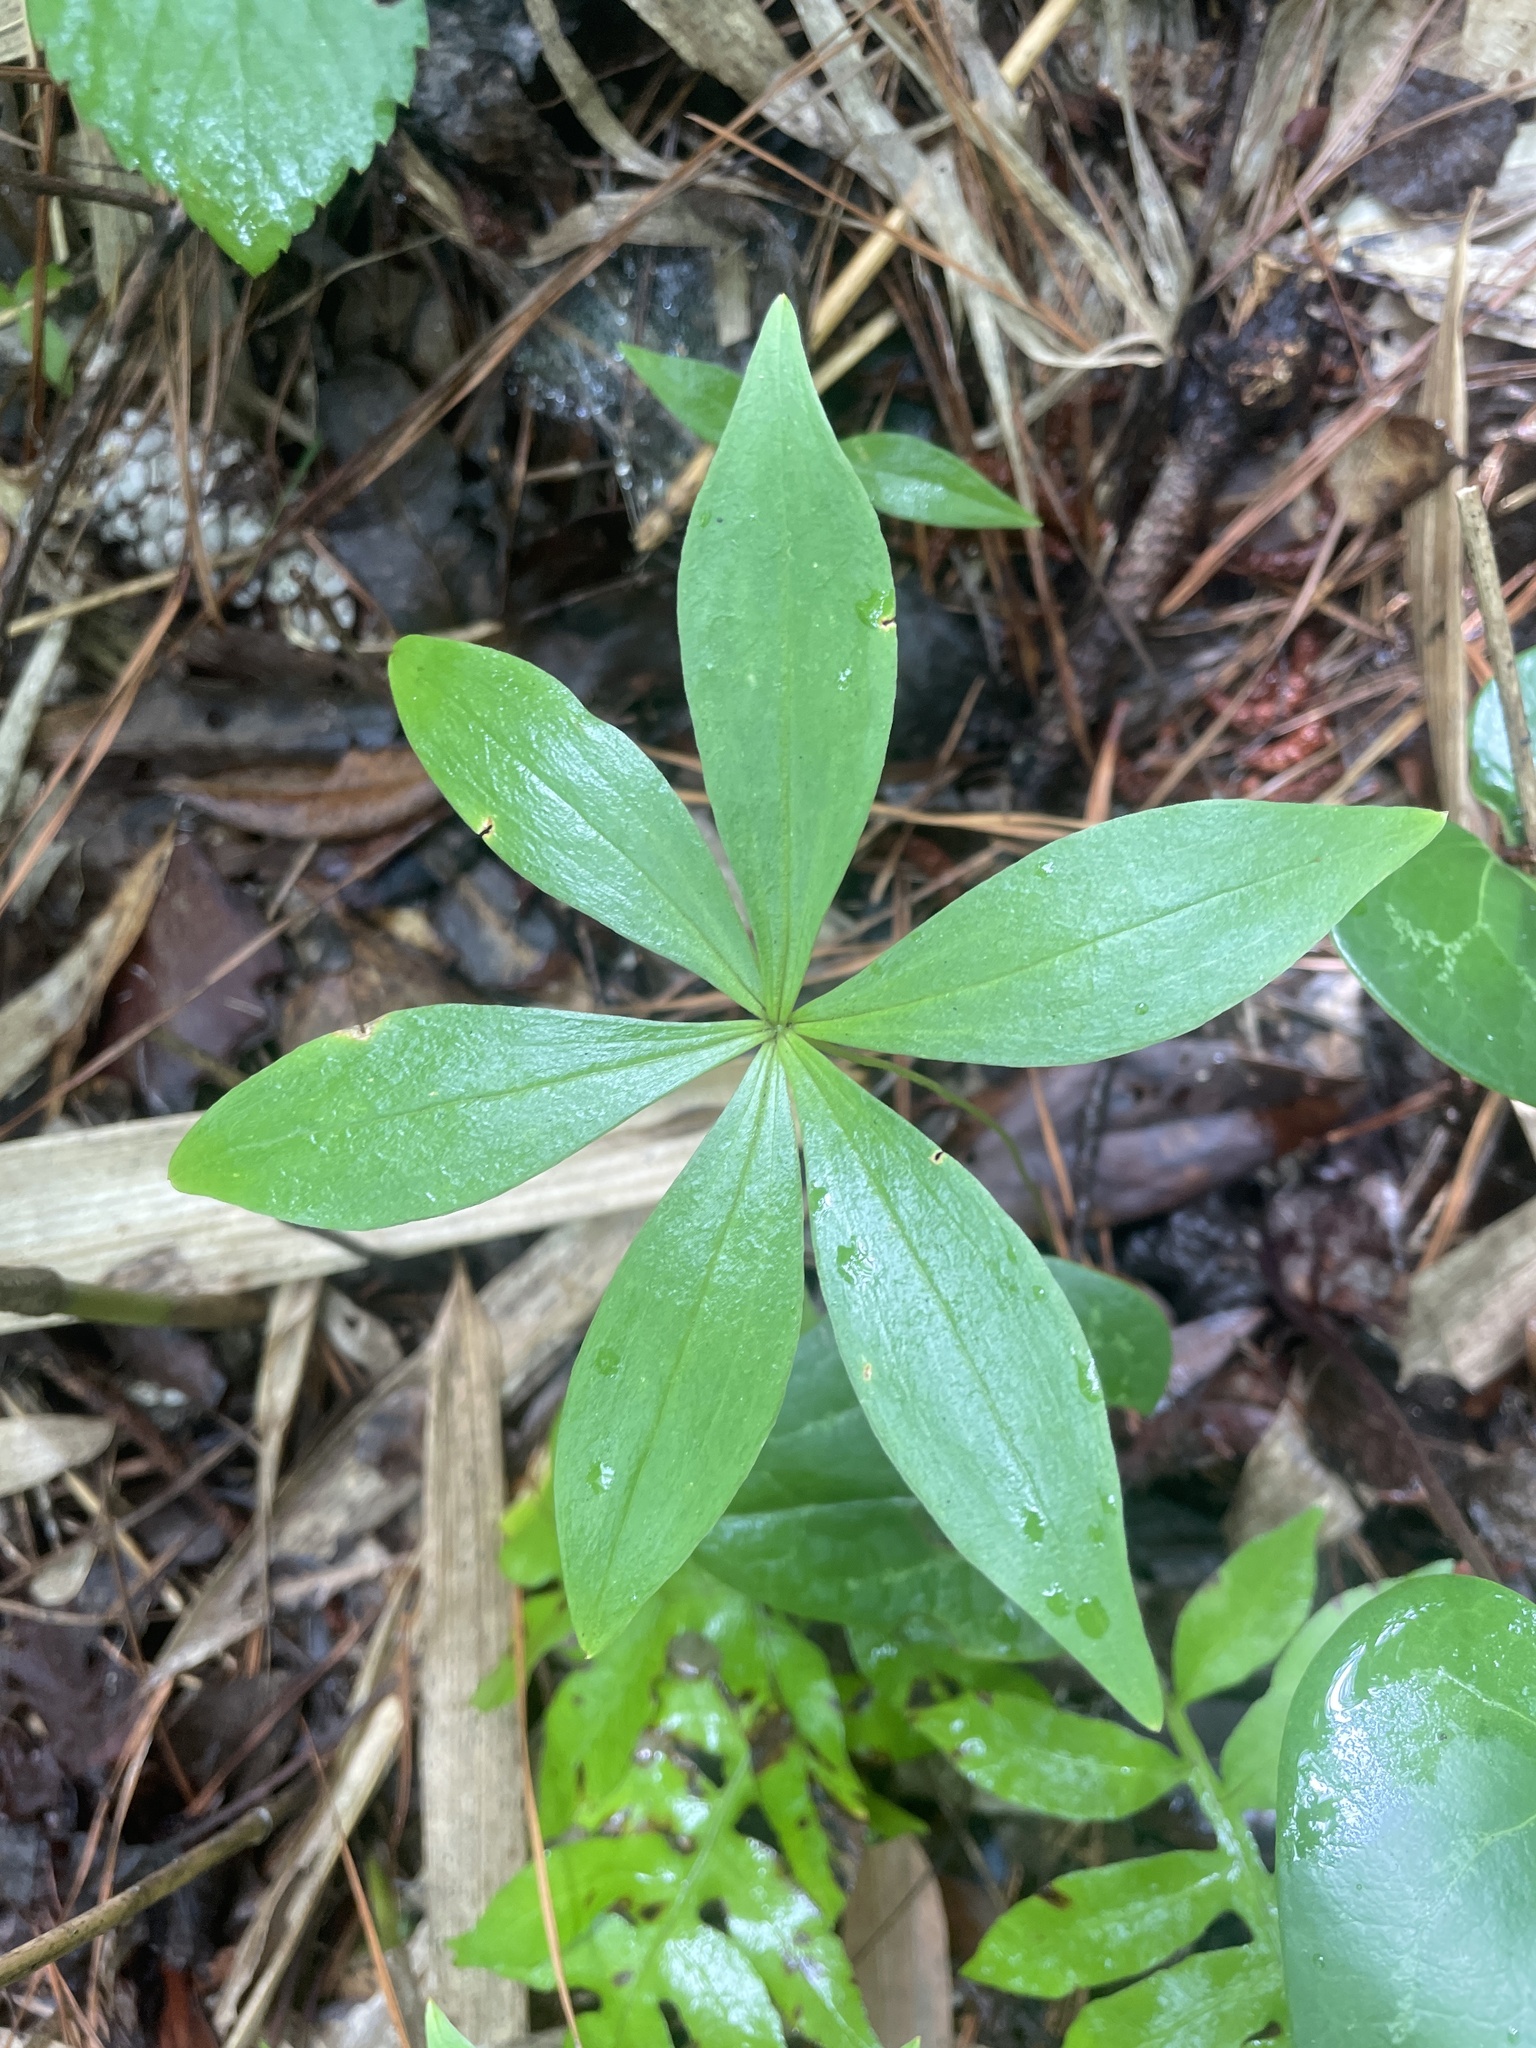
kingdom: Plantae
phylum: Tracheophyta
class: Liliopsida
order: Liliales
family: Liliaceae
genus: Medeola
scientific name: Medeola virginiana
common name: Indian cucumber-root
